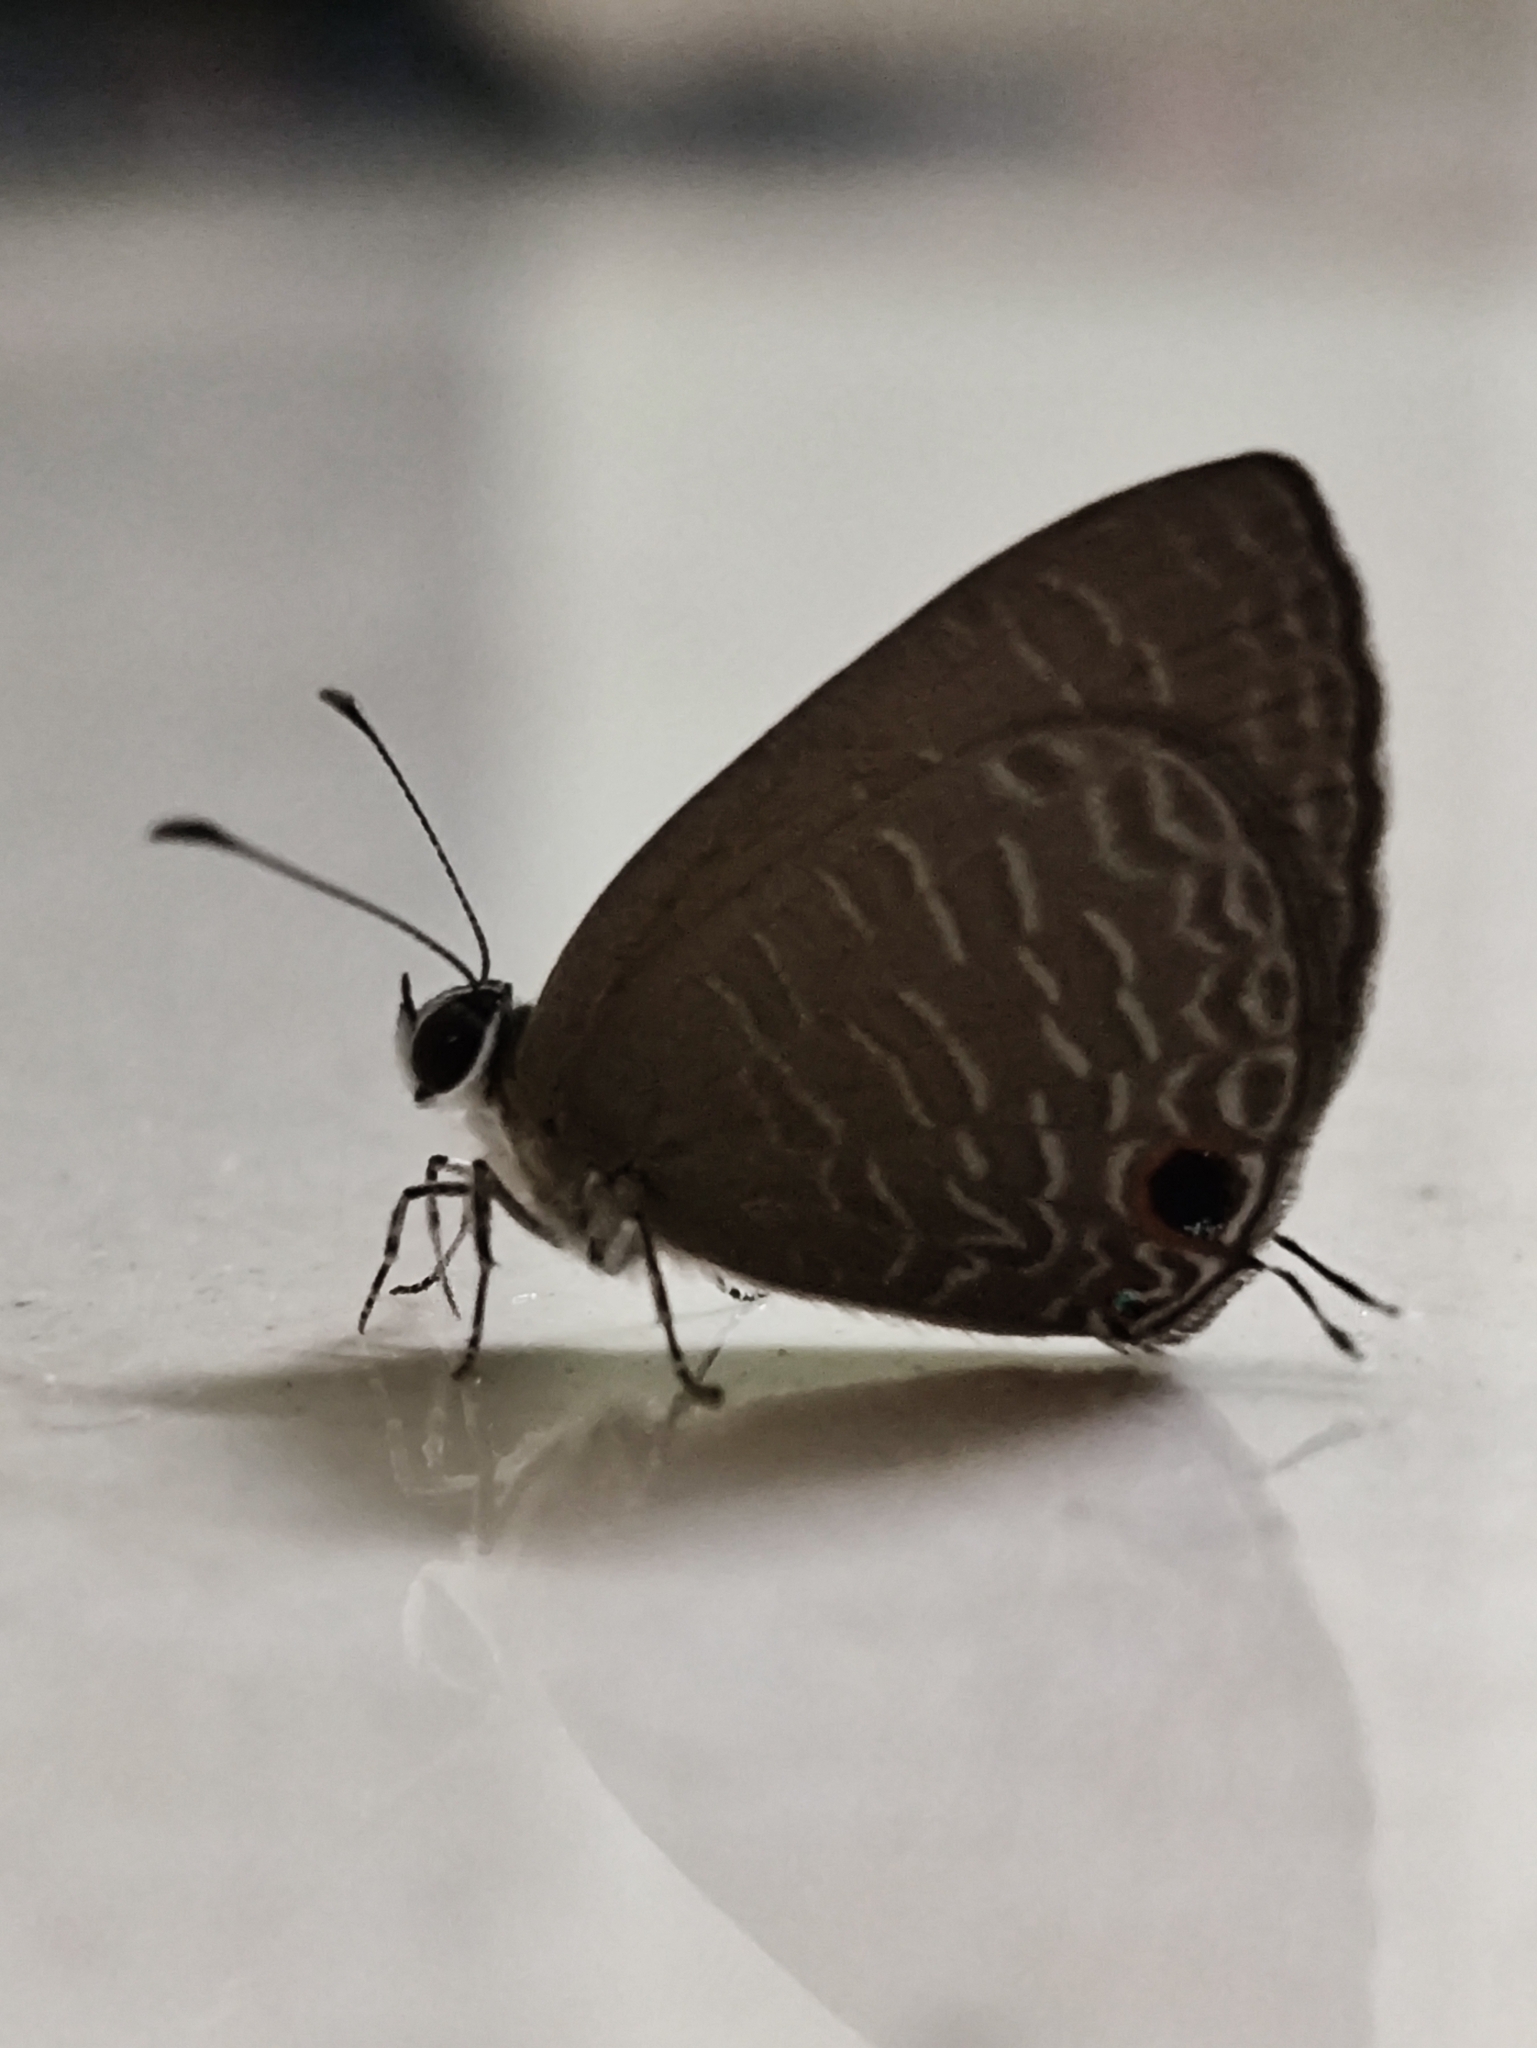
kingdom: Animalia
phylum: Arthropoda
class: Insecta
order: Lepidoptera
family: Lycaenidae
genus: Jamides
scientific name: Jamides bochus
